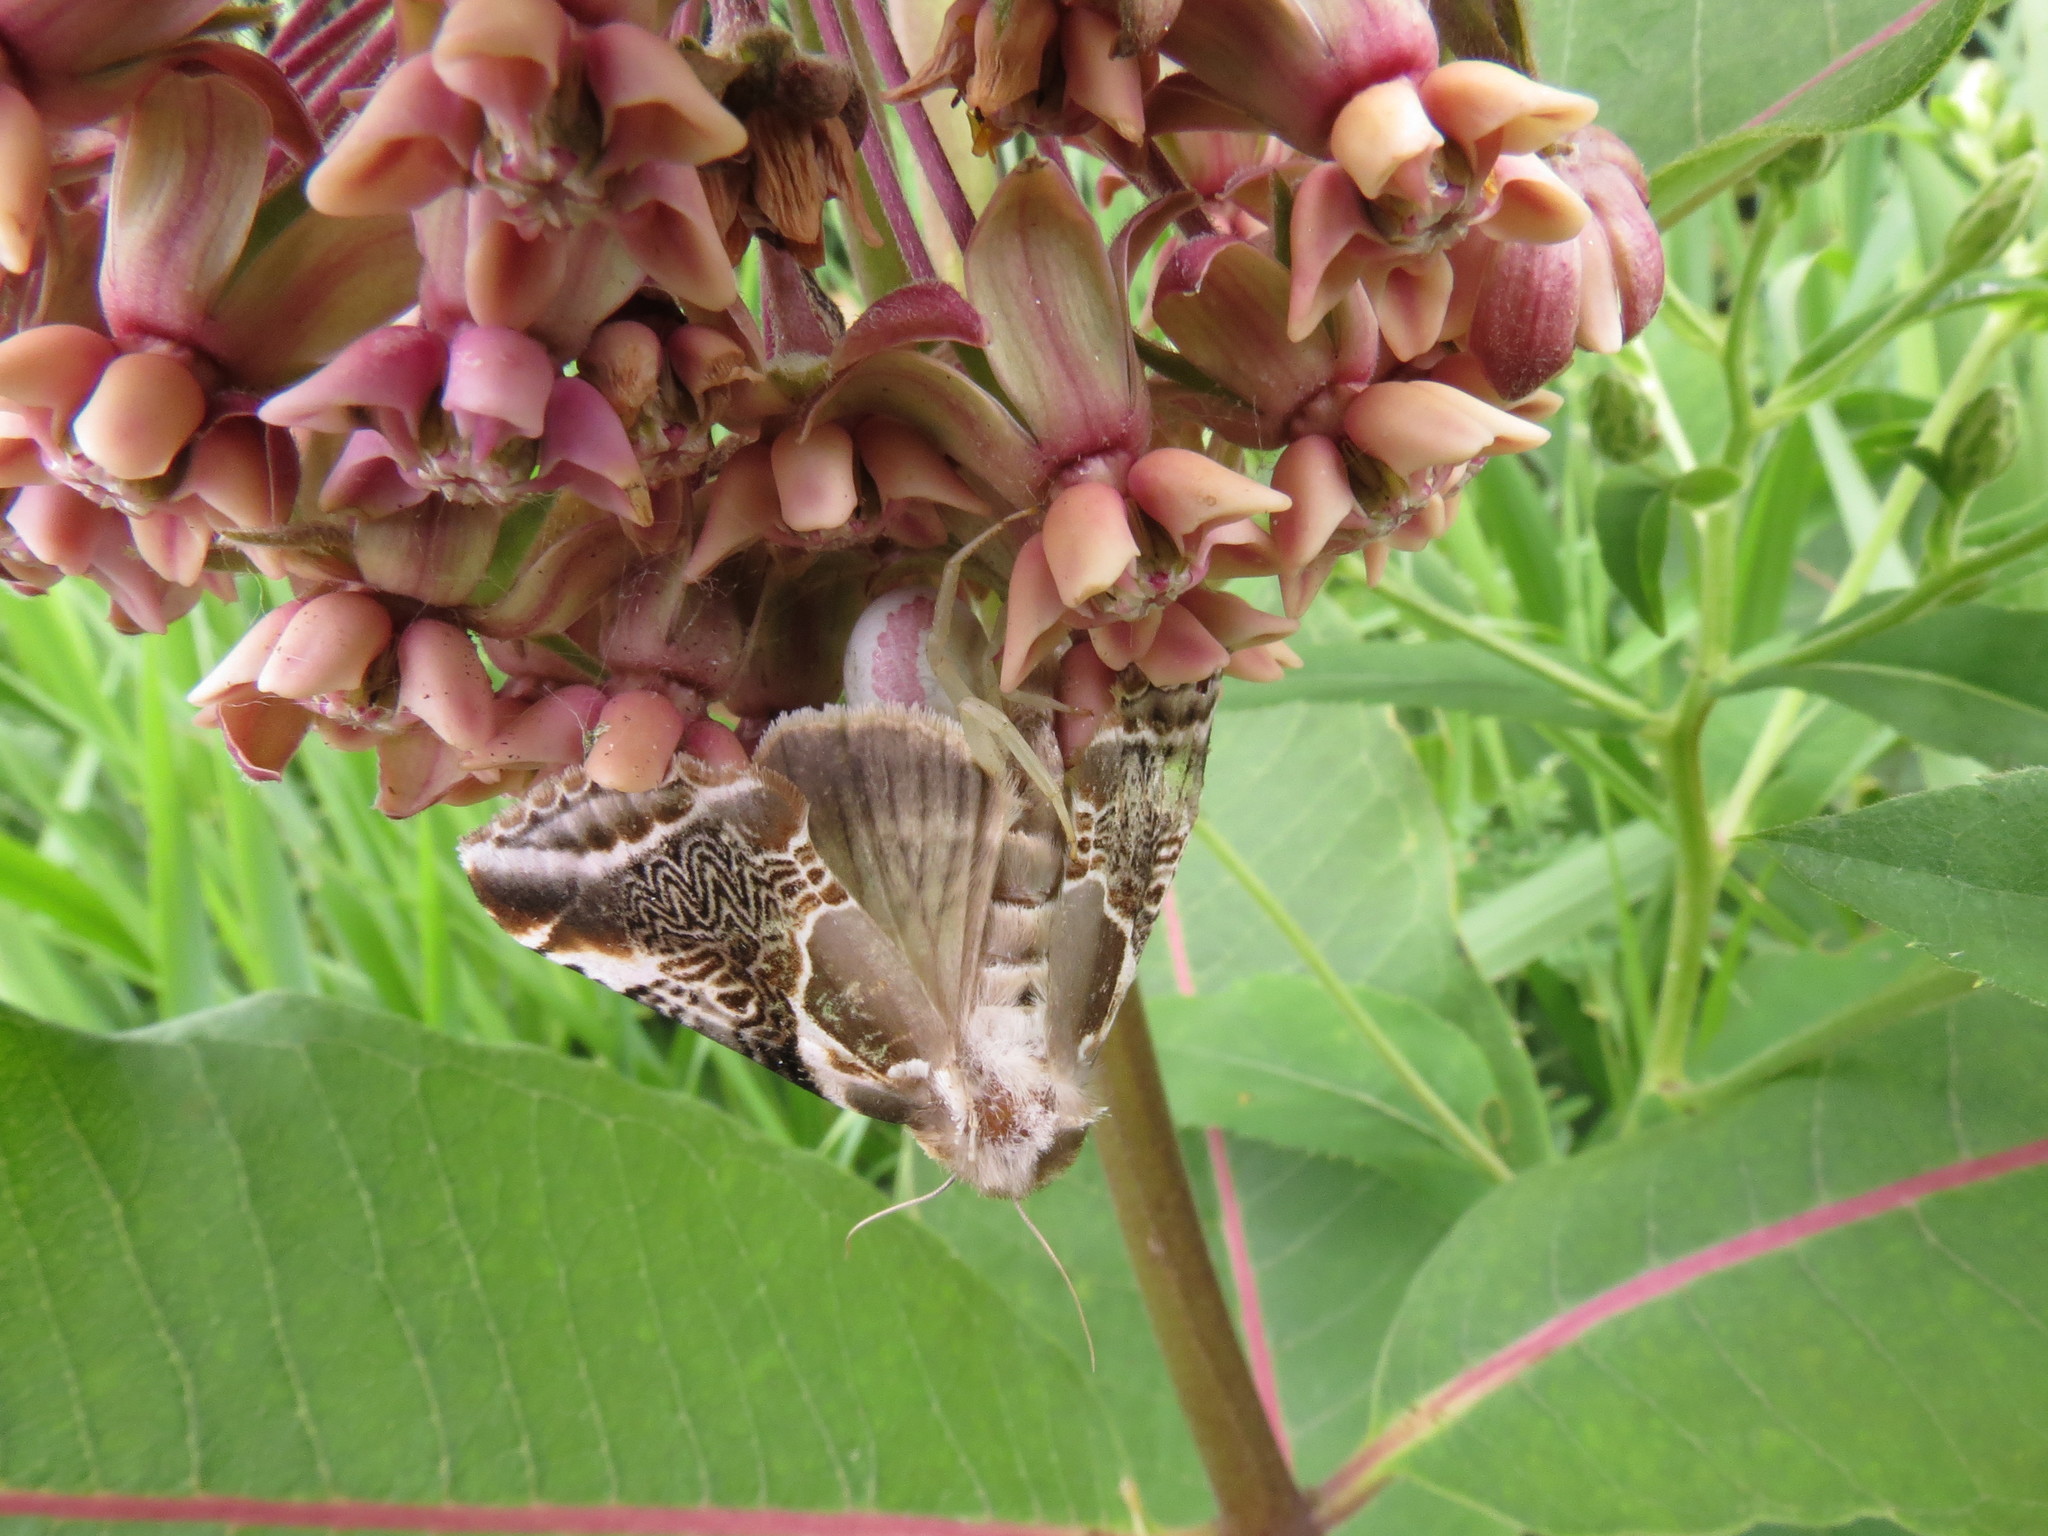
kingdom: Animalia
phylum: Arthropoda
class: Insecta
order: Lepidoptera
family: Drepanidae
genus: Habrosyne
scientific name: Habrosyne scripta
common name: Lettered habrosyne moth
